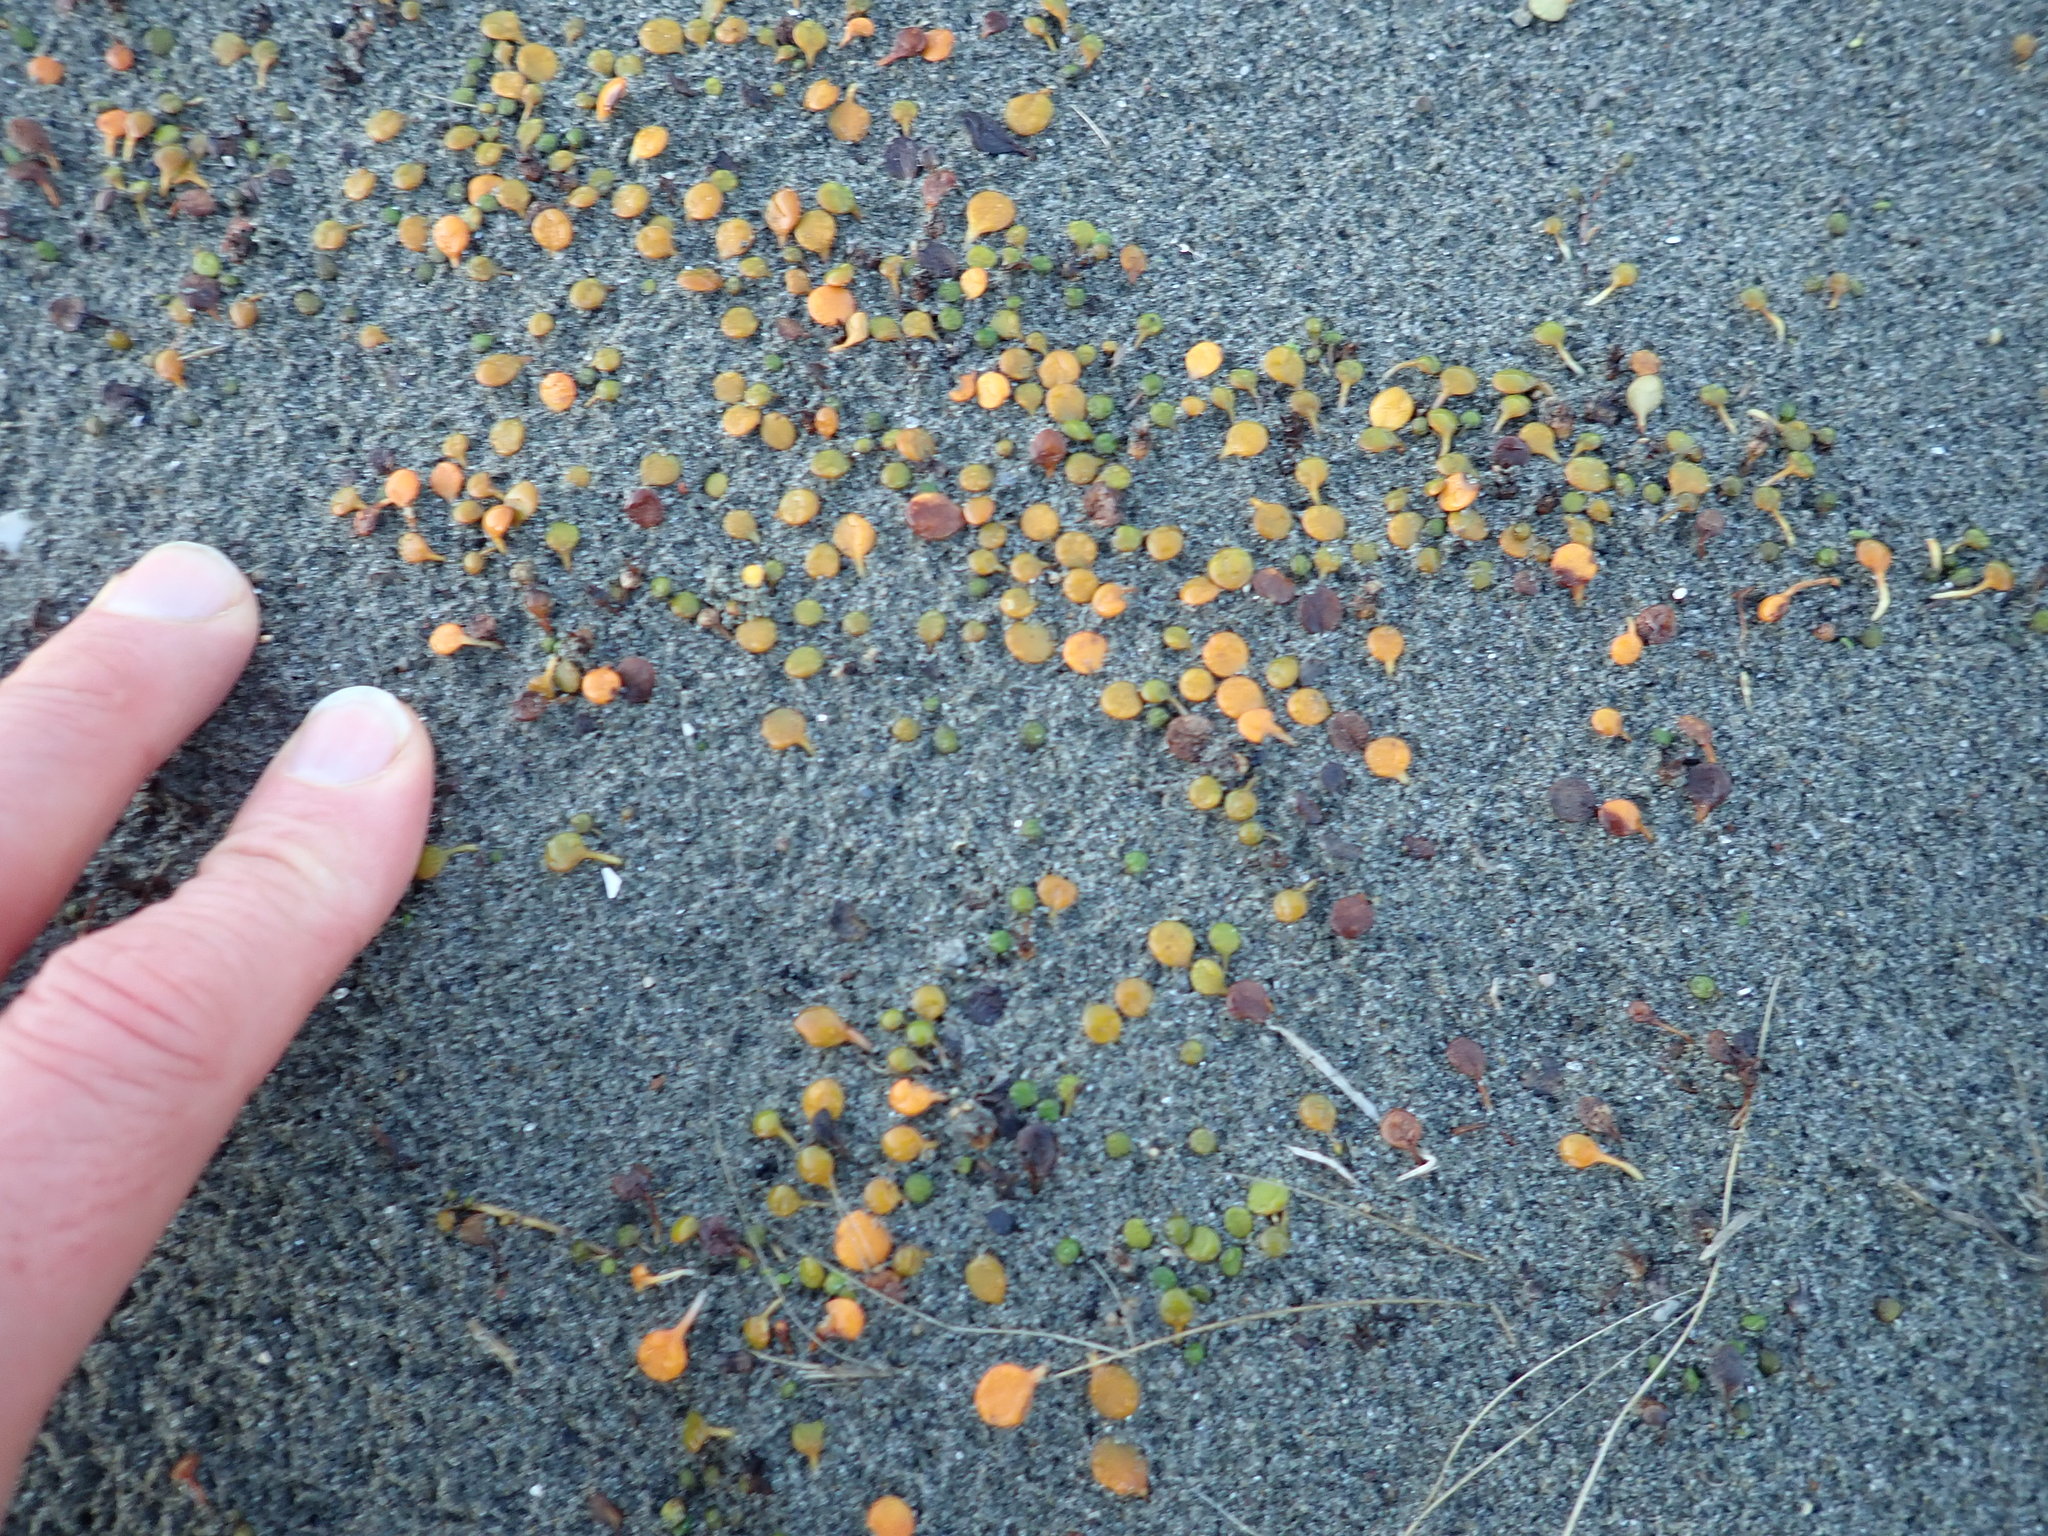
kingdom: Plantae
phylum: Tracheophyta
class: Magnoliopsida
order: Asterales
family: Goodeniaceae
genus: Goodenia
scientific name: Goodenia heenanii
